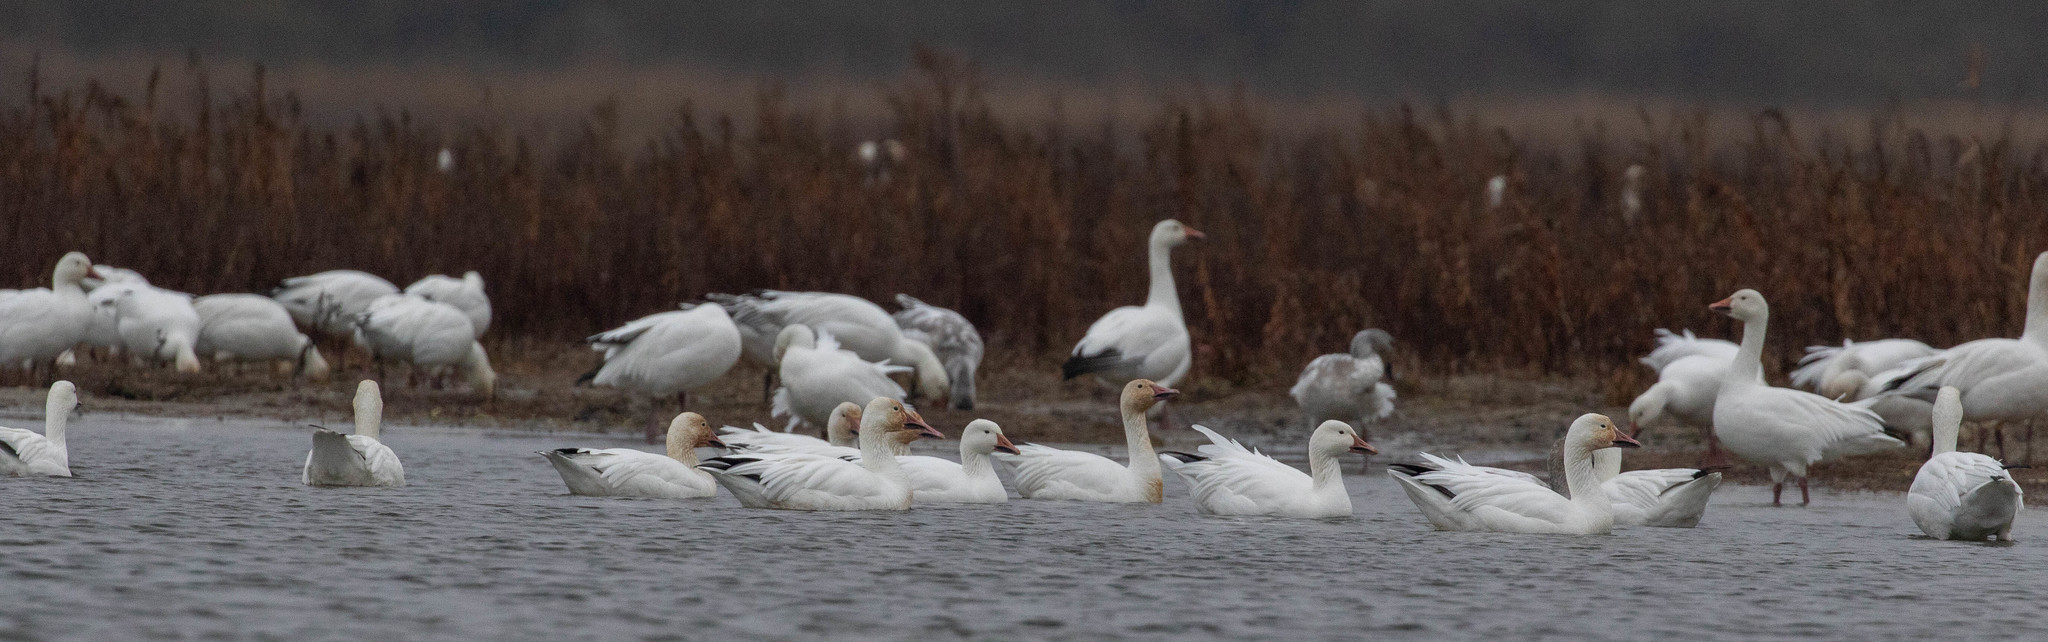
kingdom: Animalia
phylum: Chordata
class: Aves
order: Anseriformes
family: Anatidae
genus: Anser
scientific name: Anser caerulescens
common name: Snow goose
